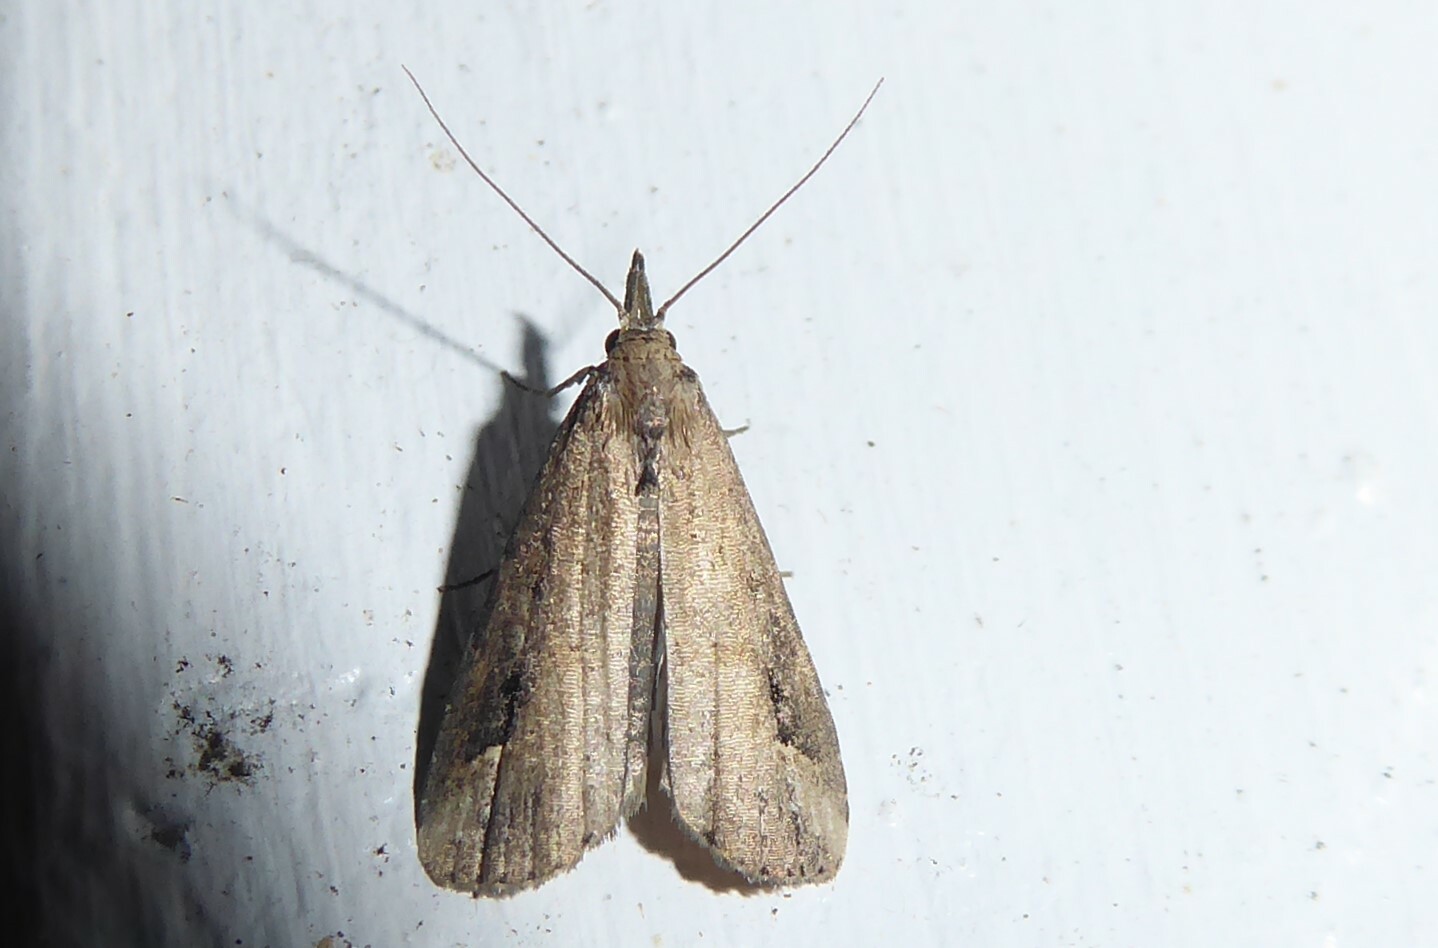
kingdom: Animalia
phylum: Arthropoda
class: Insecta
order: Lepidoptera
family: Erebidae
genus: Schrankia
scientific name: Schrankia costaestrigalis
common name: Pinion-streaked snout
